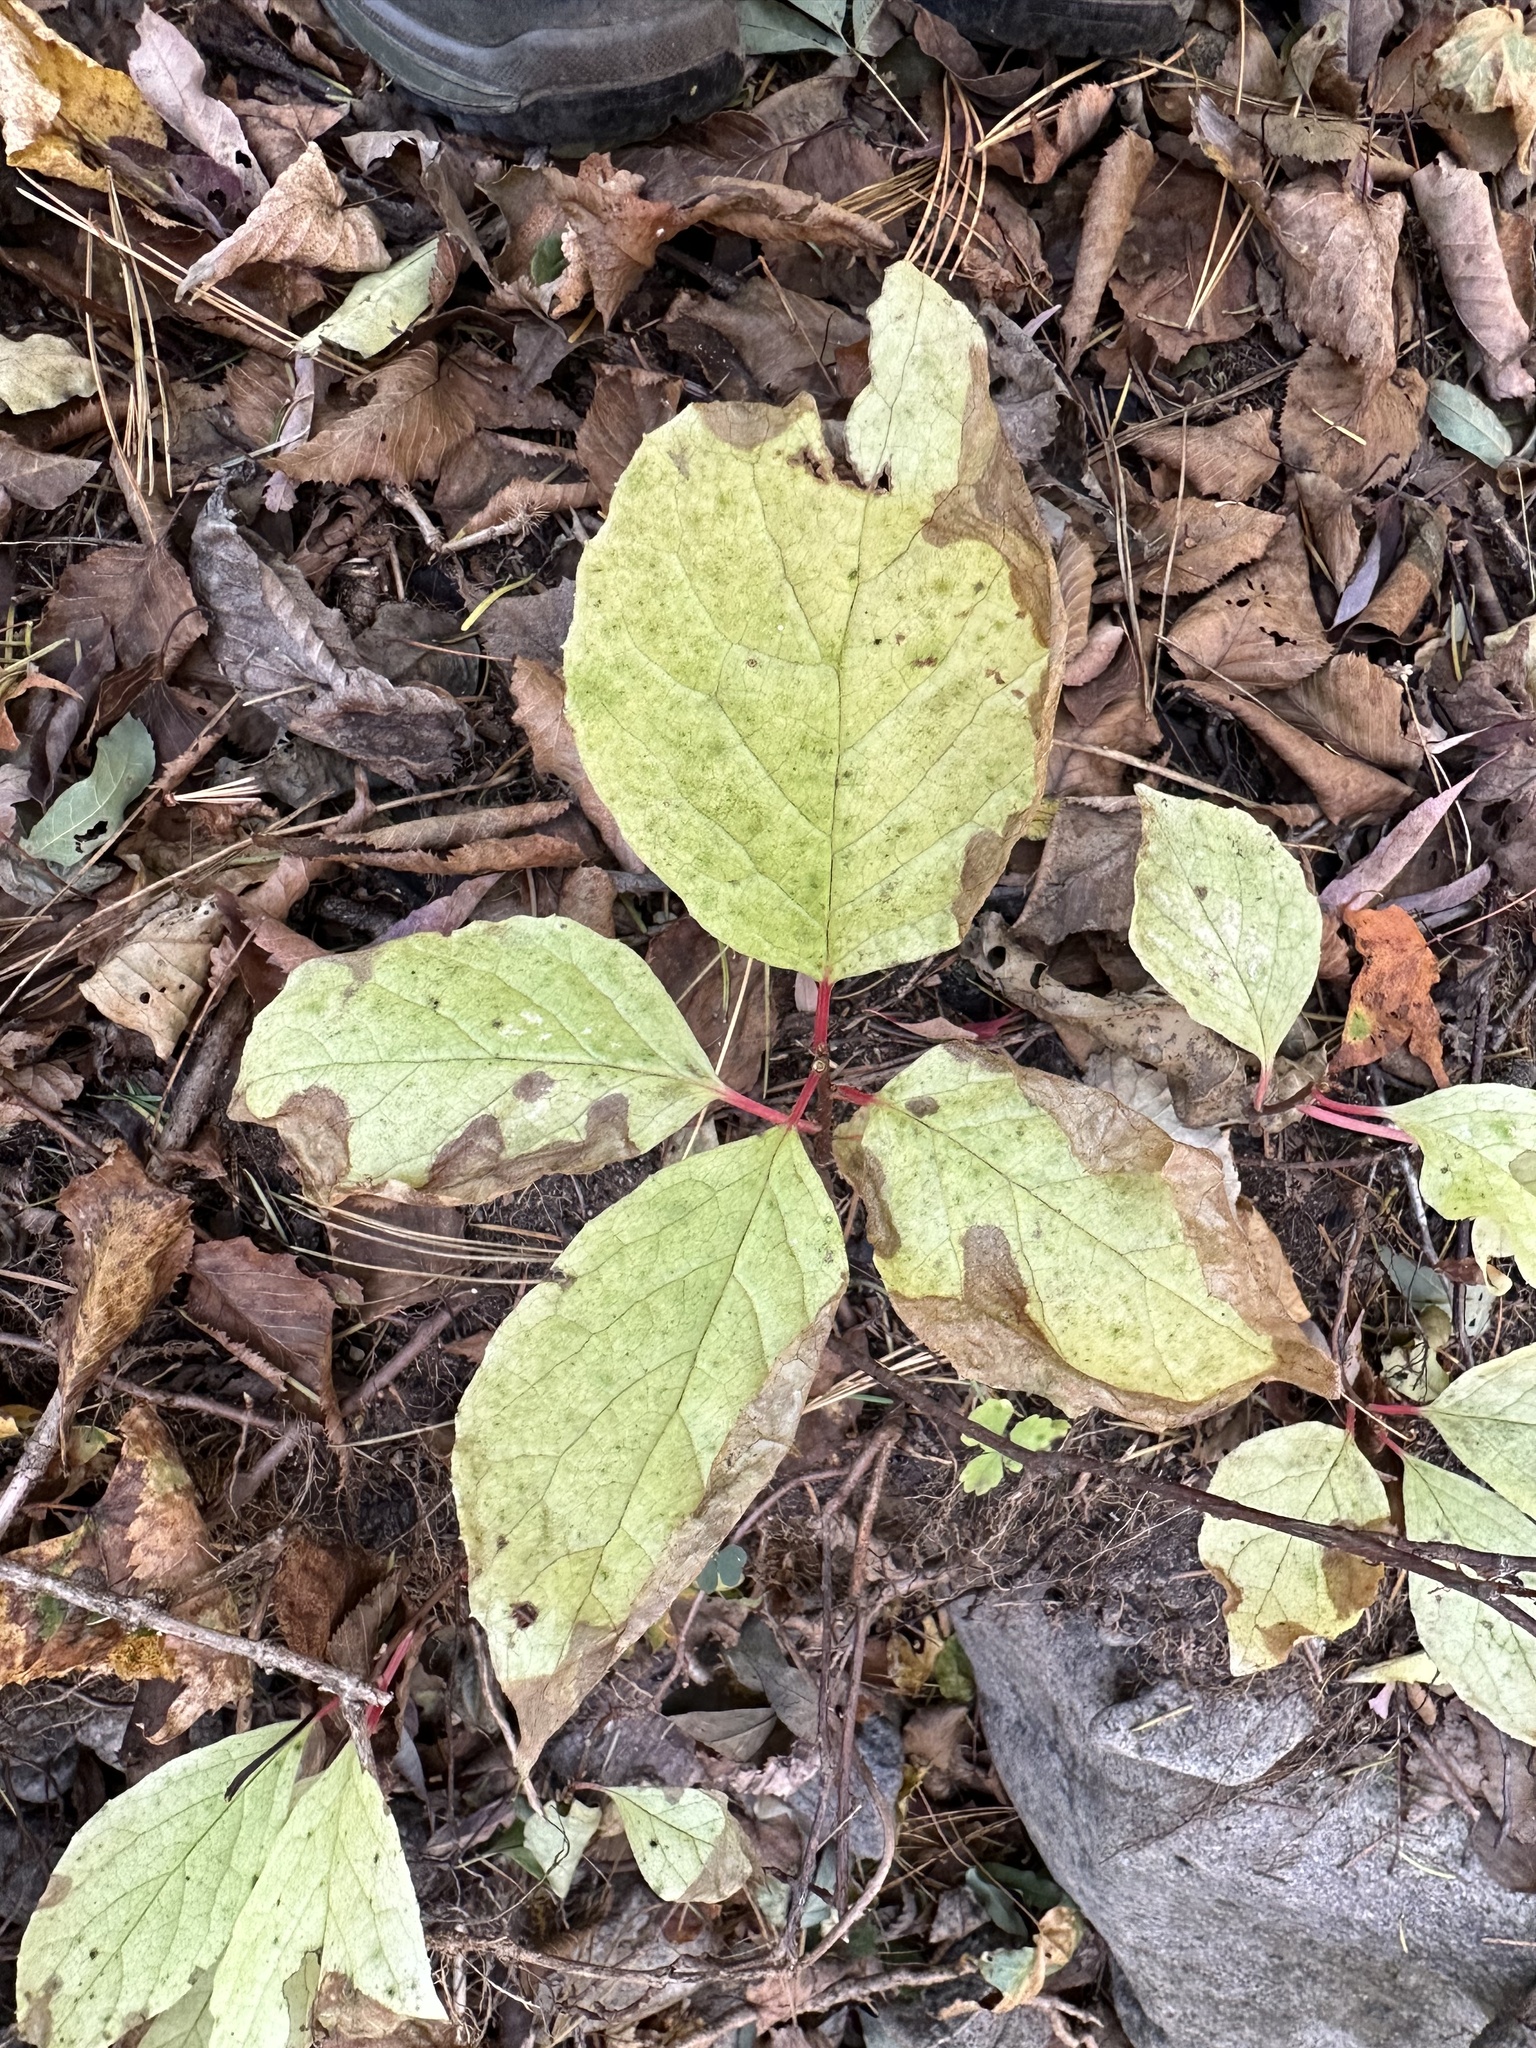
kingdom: Plantae
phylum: Tracheophyta
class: Magnoliopsida
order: Austrobaileyales
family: Schisandraceae
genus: Schisandra
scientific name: Schisandra chinensis
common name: Magnolia-vine
